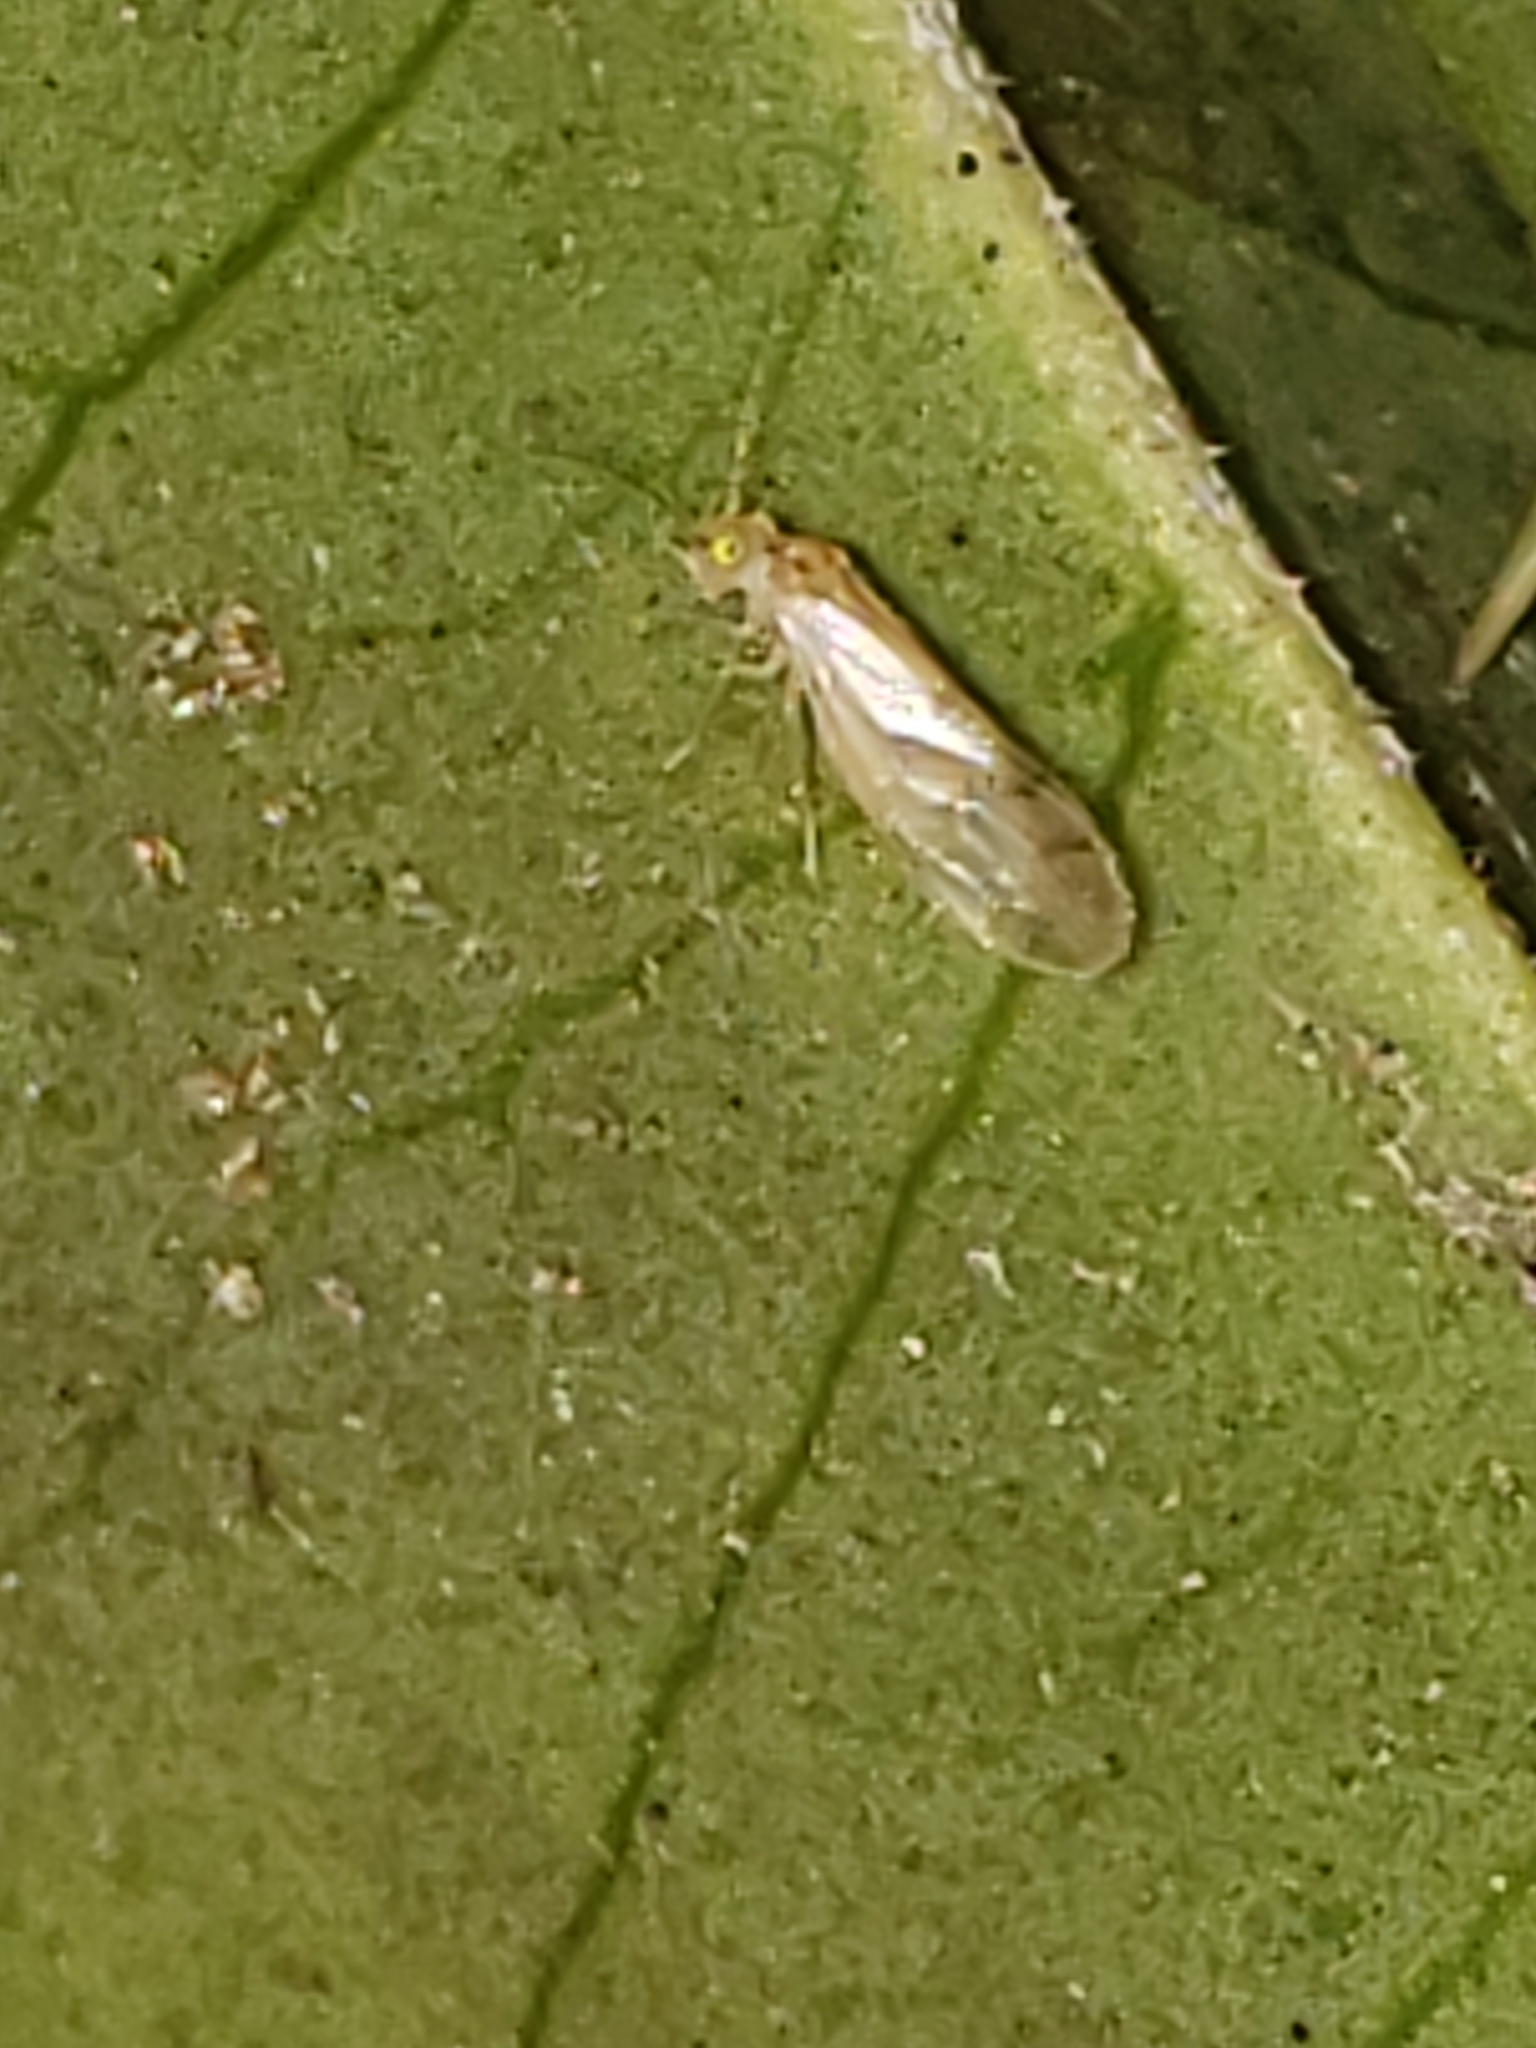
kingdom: Animalia
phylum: Arthropoda
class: Insecta
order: Psocodea
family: Paracaeciliidae
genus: Xanthocaecilius
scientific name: Xanthocaecilius sommermanae
